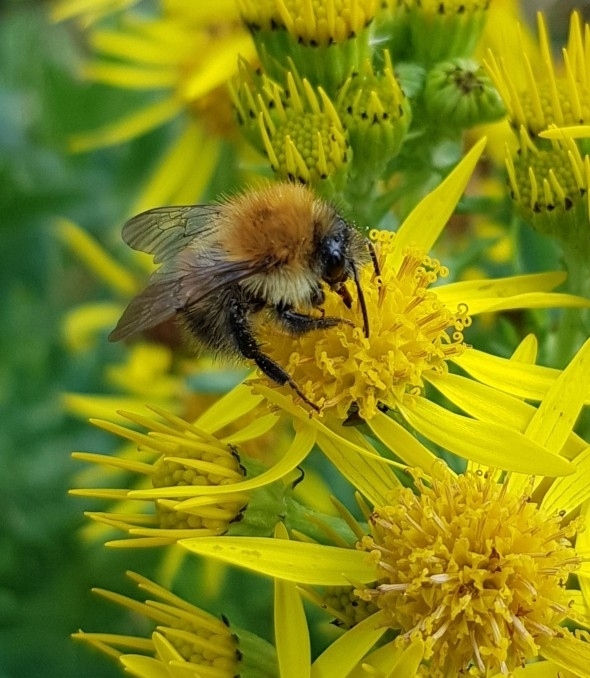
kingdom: Animalia
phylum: Arthropoda
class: Insecta
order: Hymenoptera
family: Apidae
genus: Bombus
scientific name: Bombus pascuorum
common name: Common carder bee
